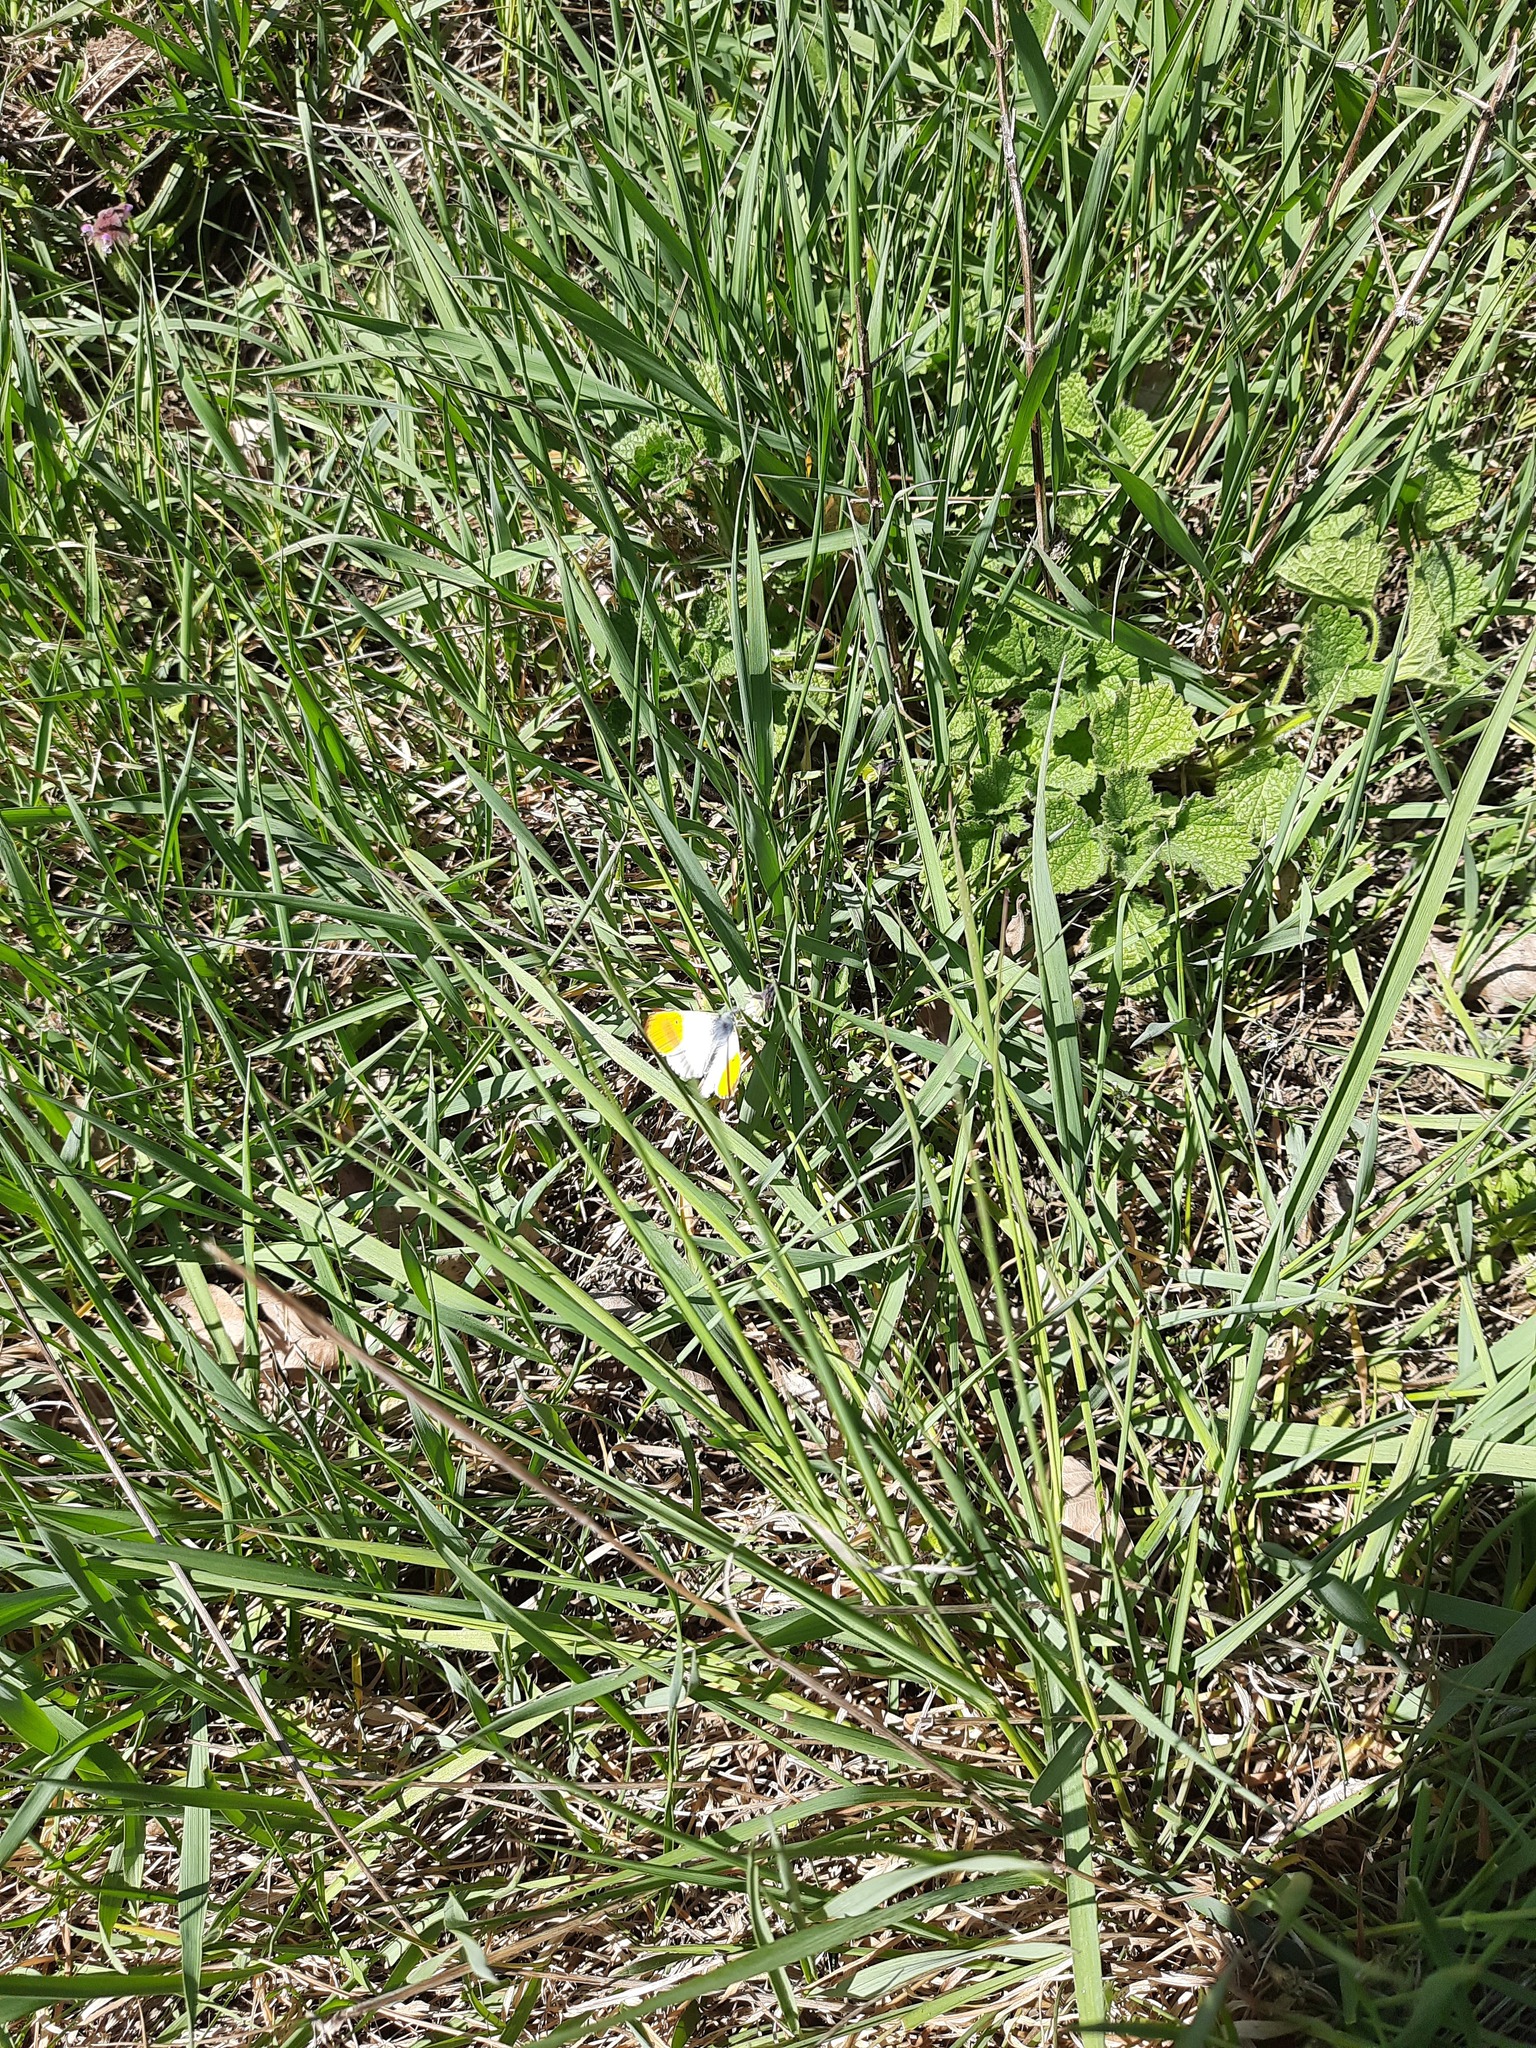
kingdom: Animalia
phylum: Arthropoda
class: Insecta
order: Lepidoptera
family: Pieridae
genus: Anthocharis
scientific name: Anthocharis cardamines
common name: Orange-tip
